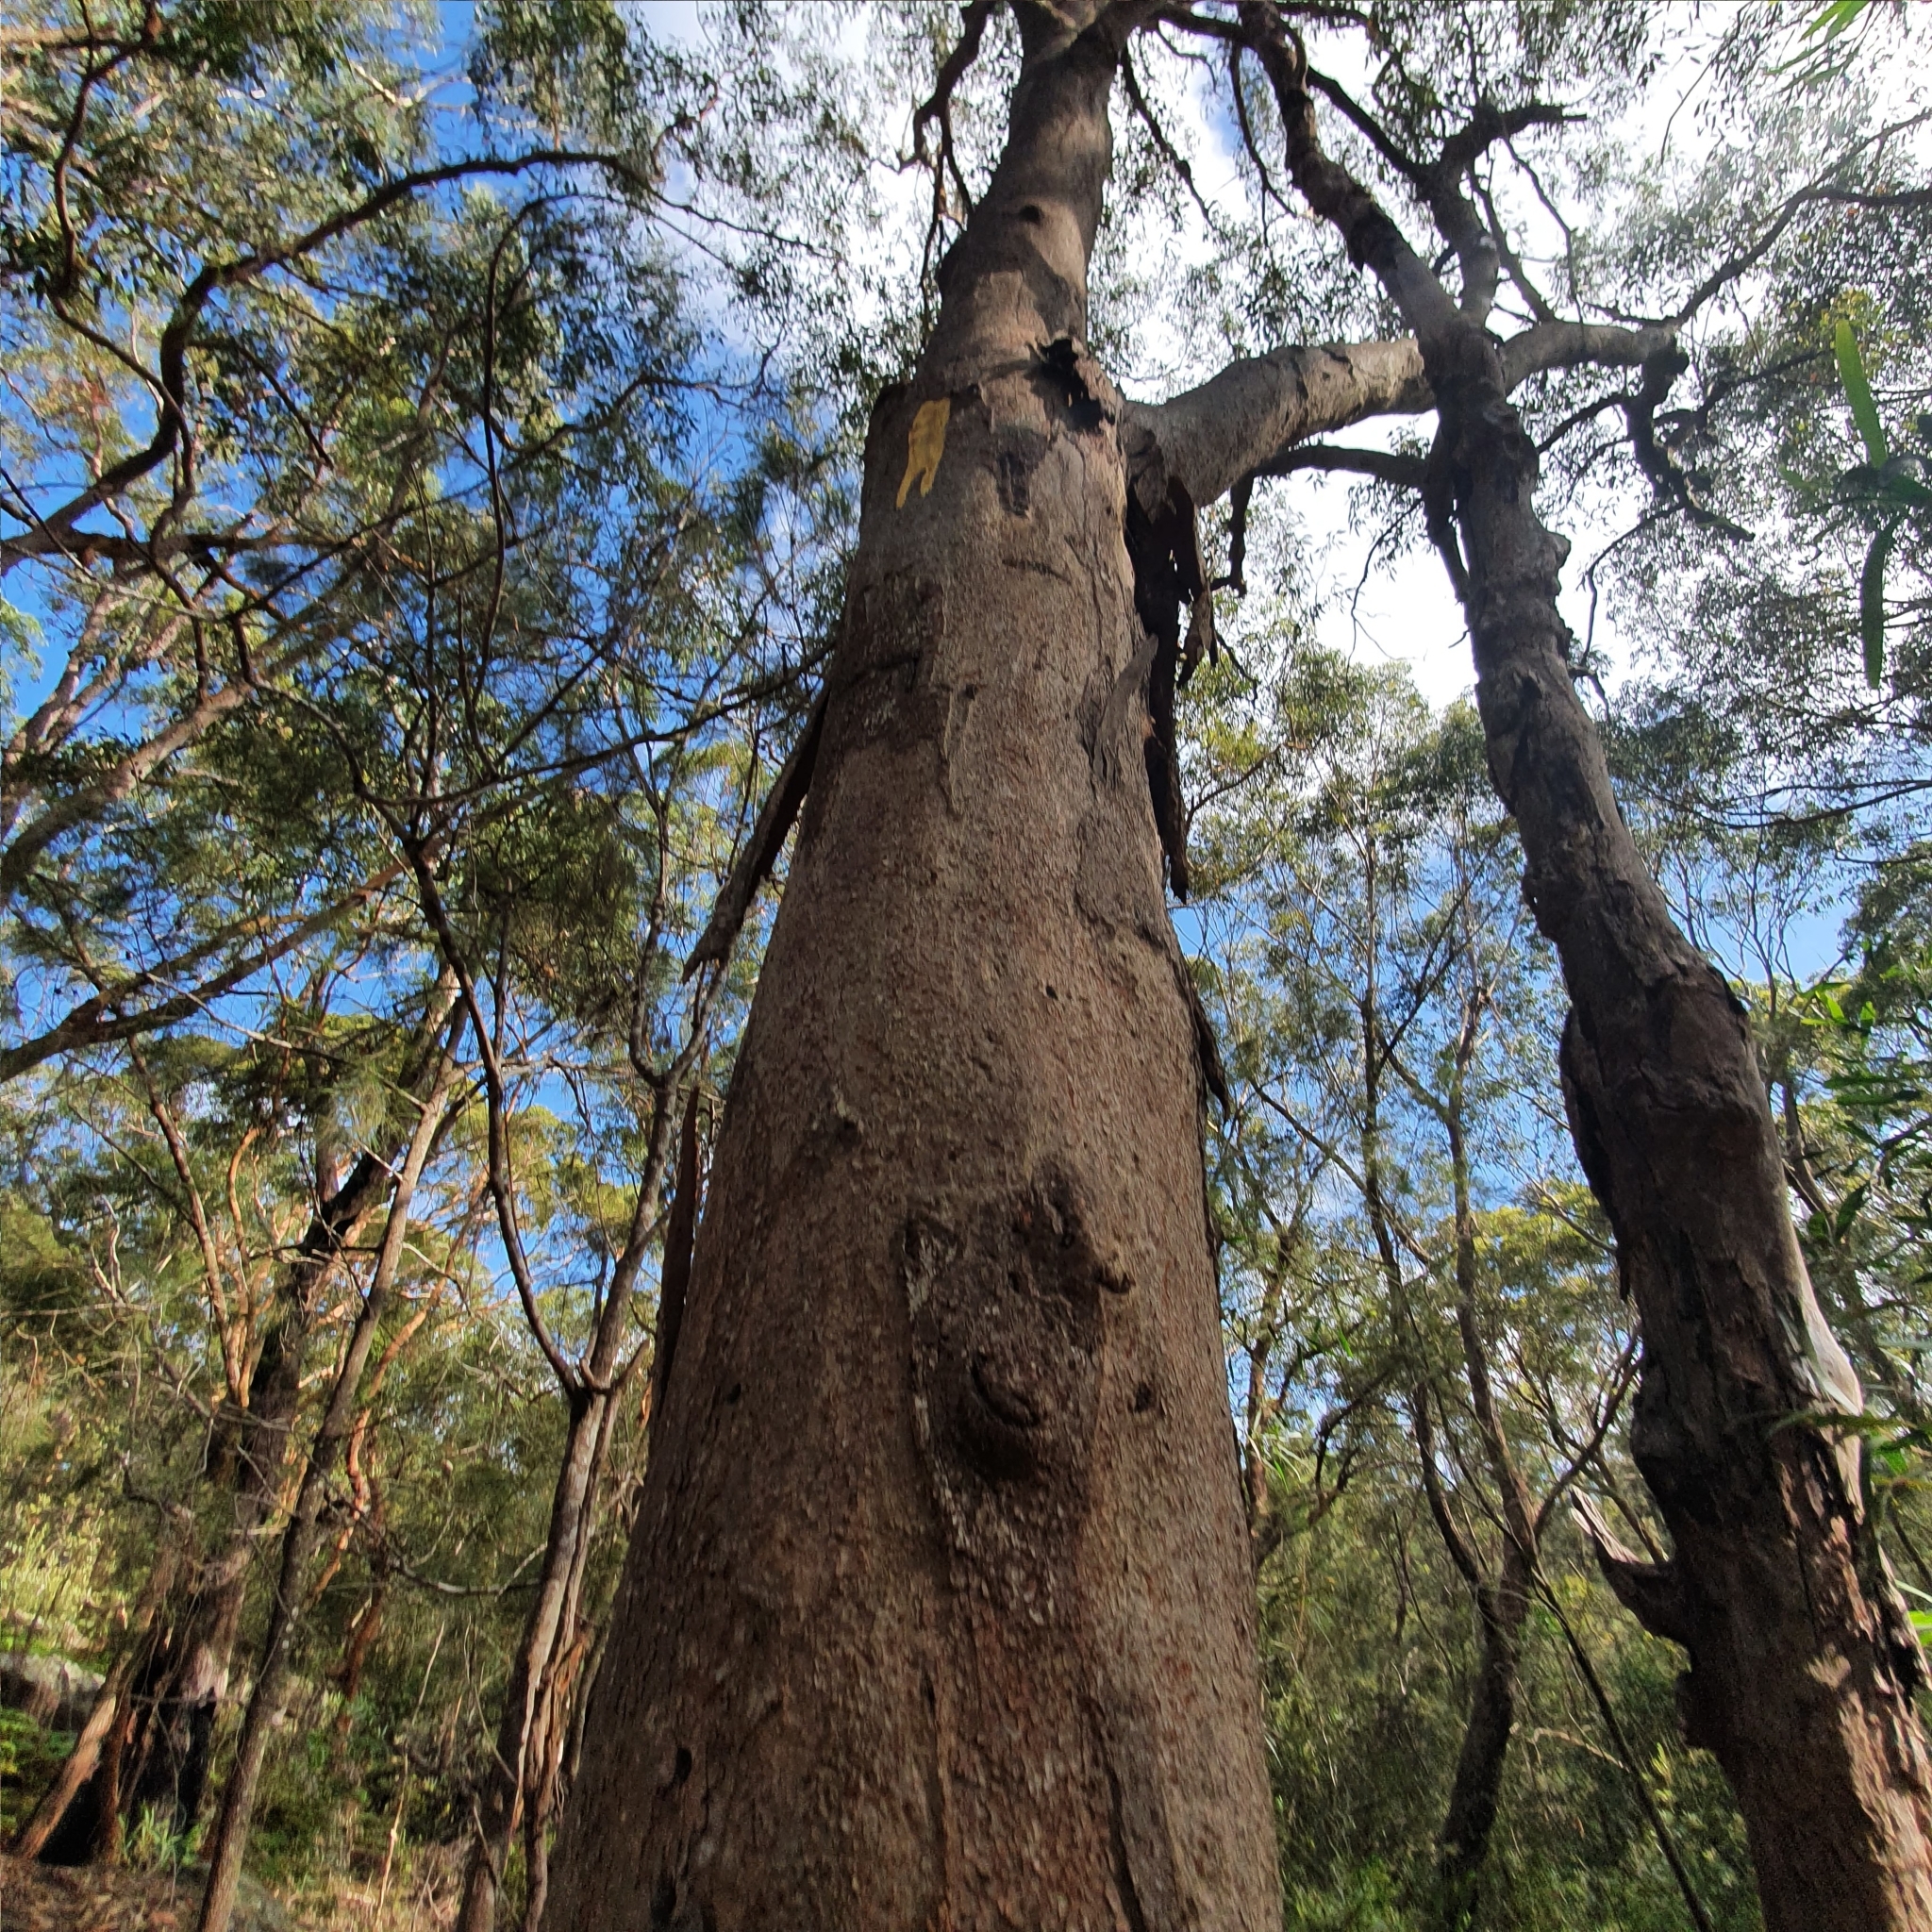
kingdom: Plantae
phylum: Tracheophyta
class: Magnoliopsida
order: Myrtales
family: Myrtaceae
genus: Eucalyptus
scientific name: Eucalyptus punctata
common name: Gray gum
